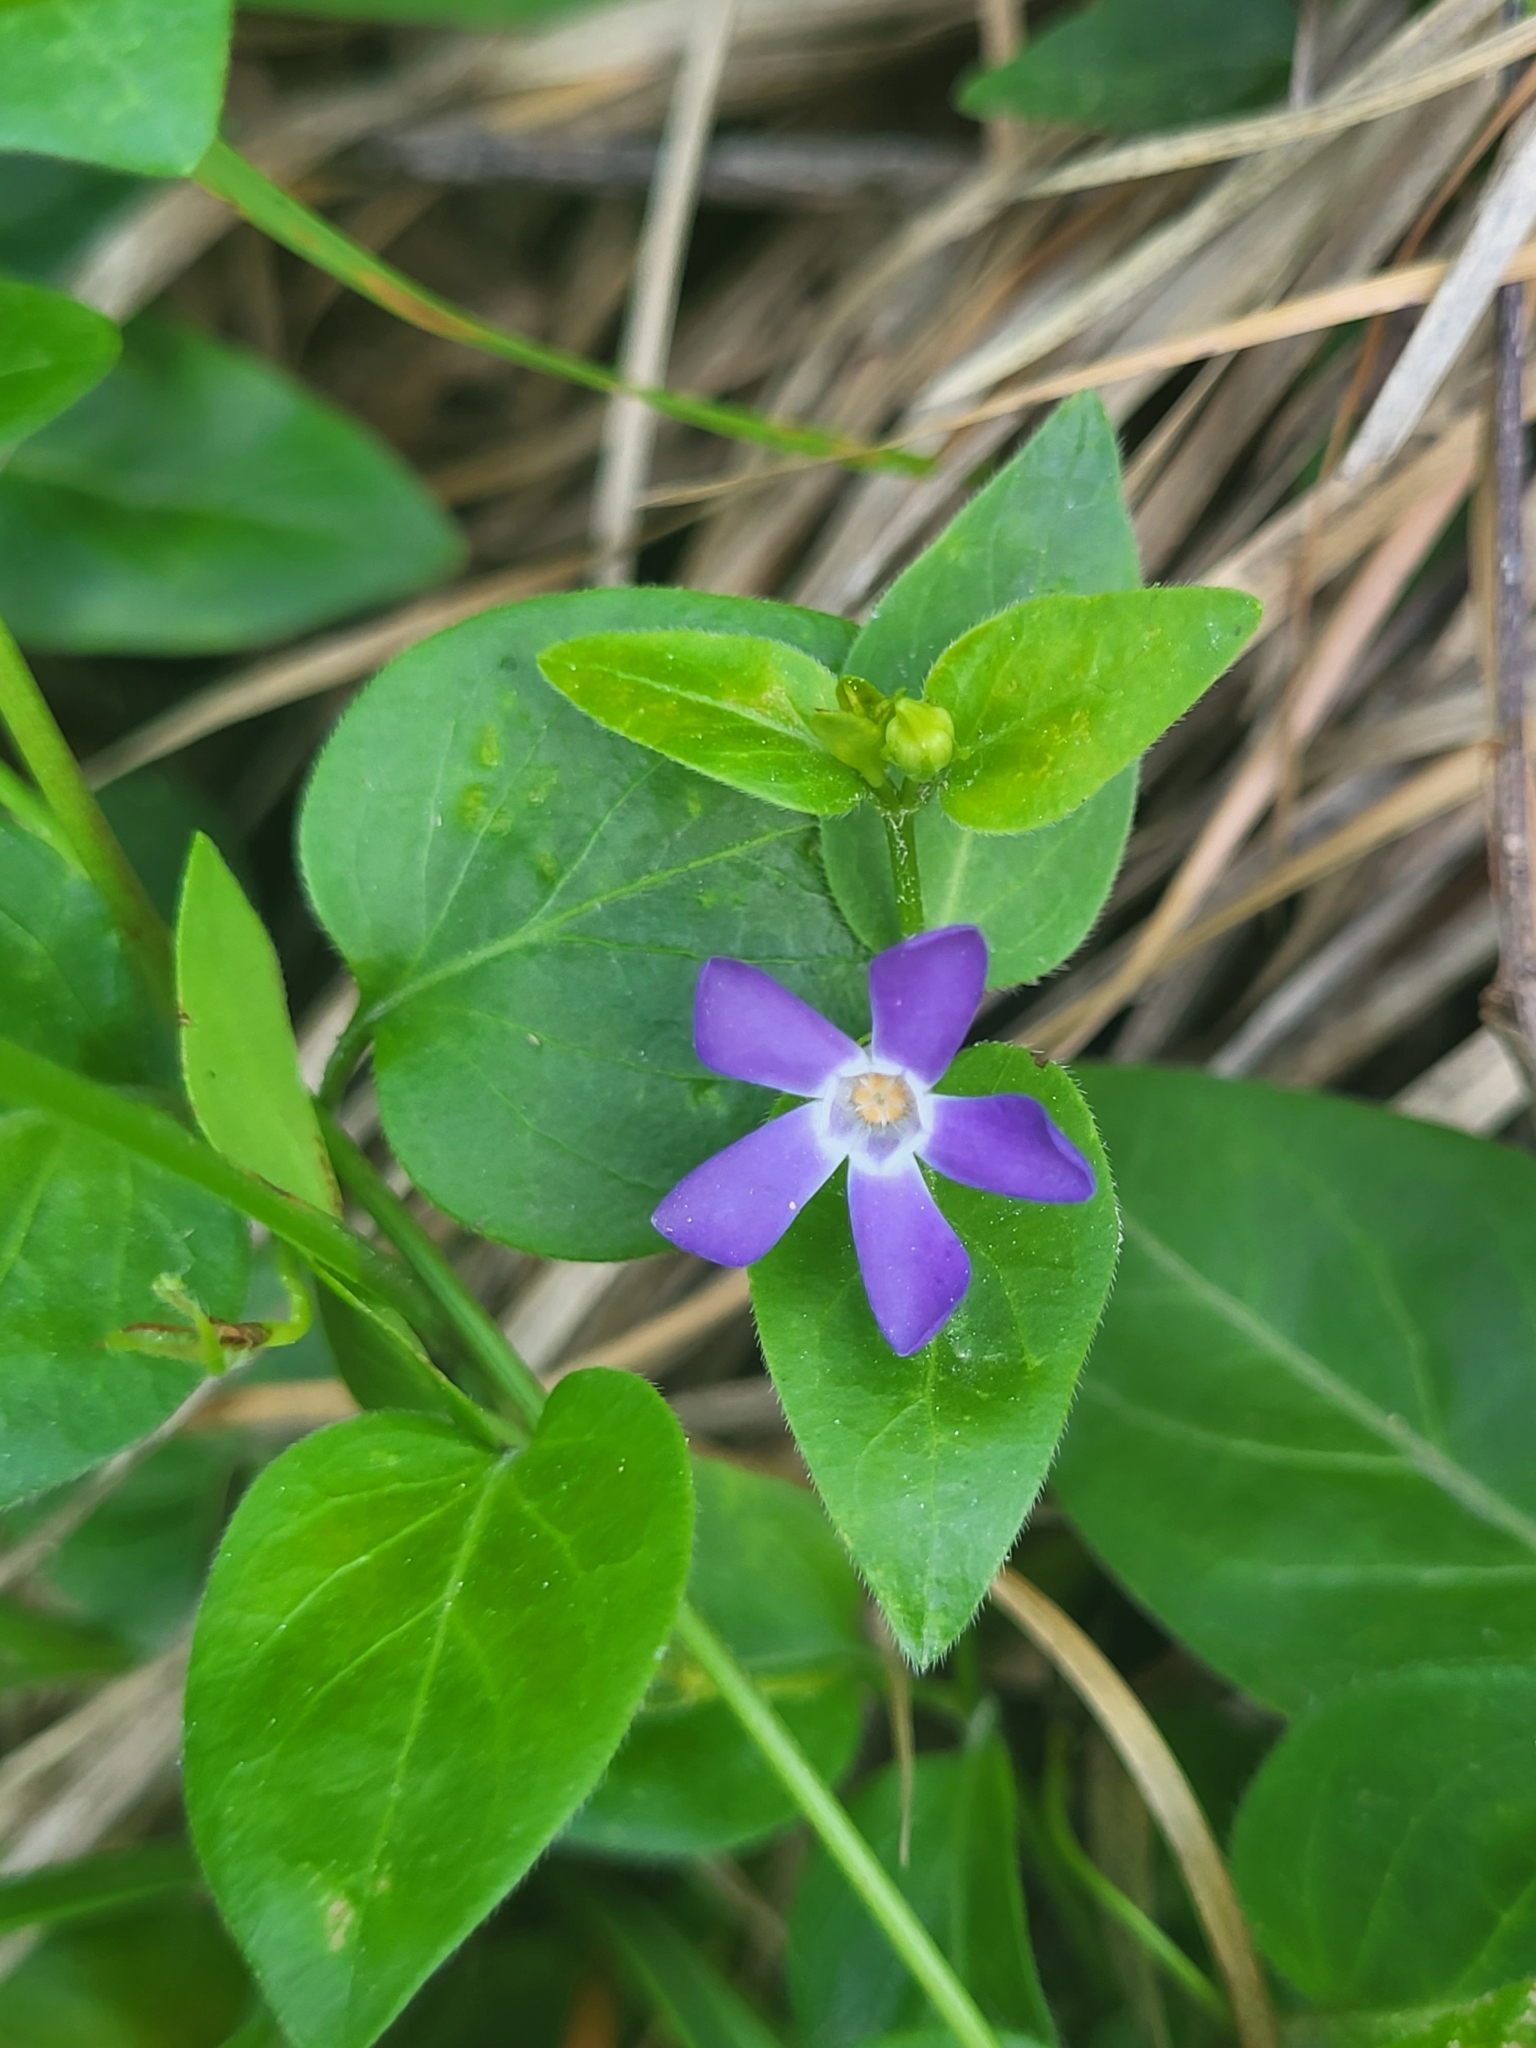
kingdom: Plantae
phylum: Tracheophyta
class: Magnoliopsida
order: Gentianales
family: Apocynaceae
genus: Vinca
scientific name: Vinca herbacea
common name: Herbaceous periwinkle
